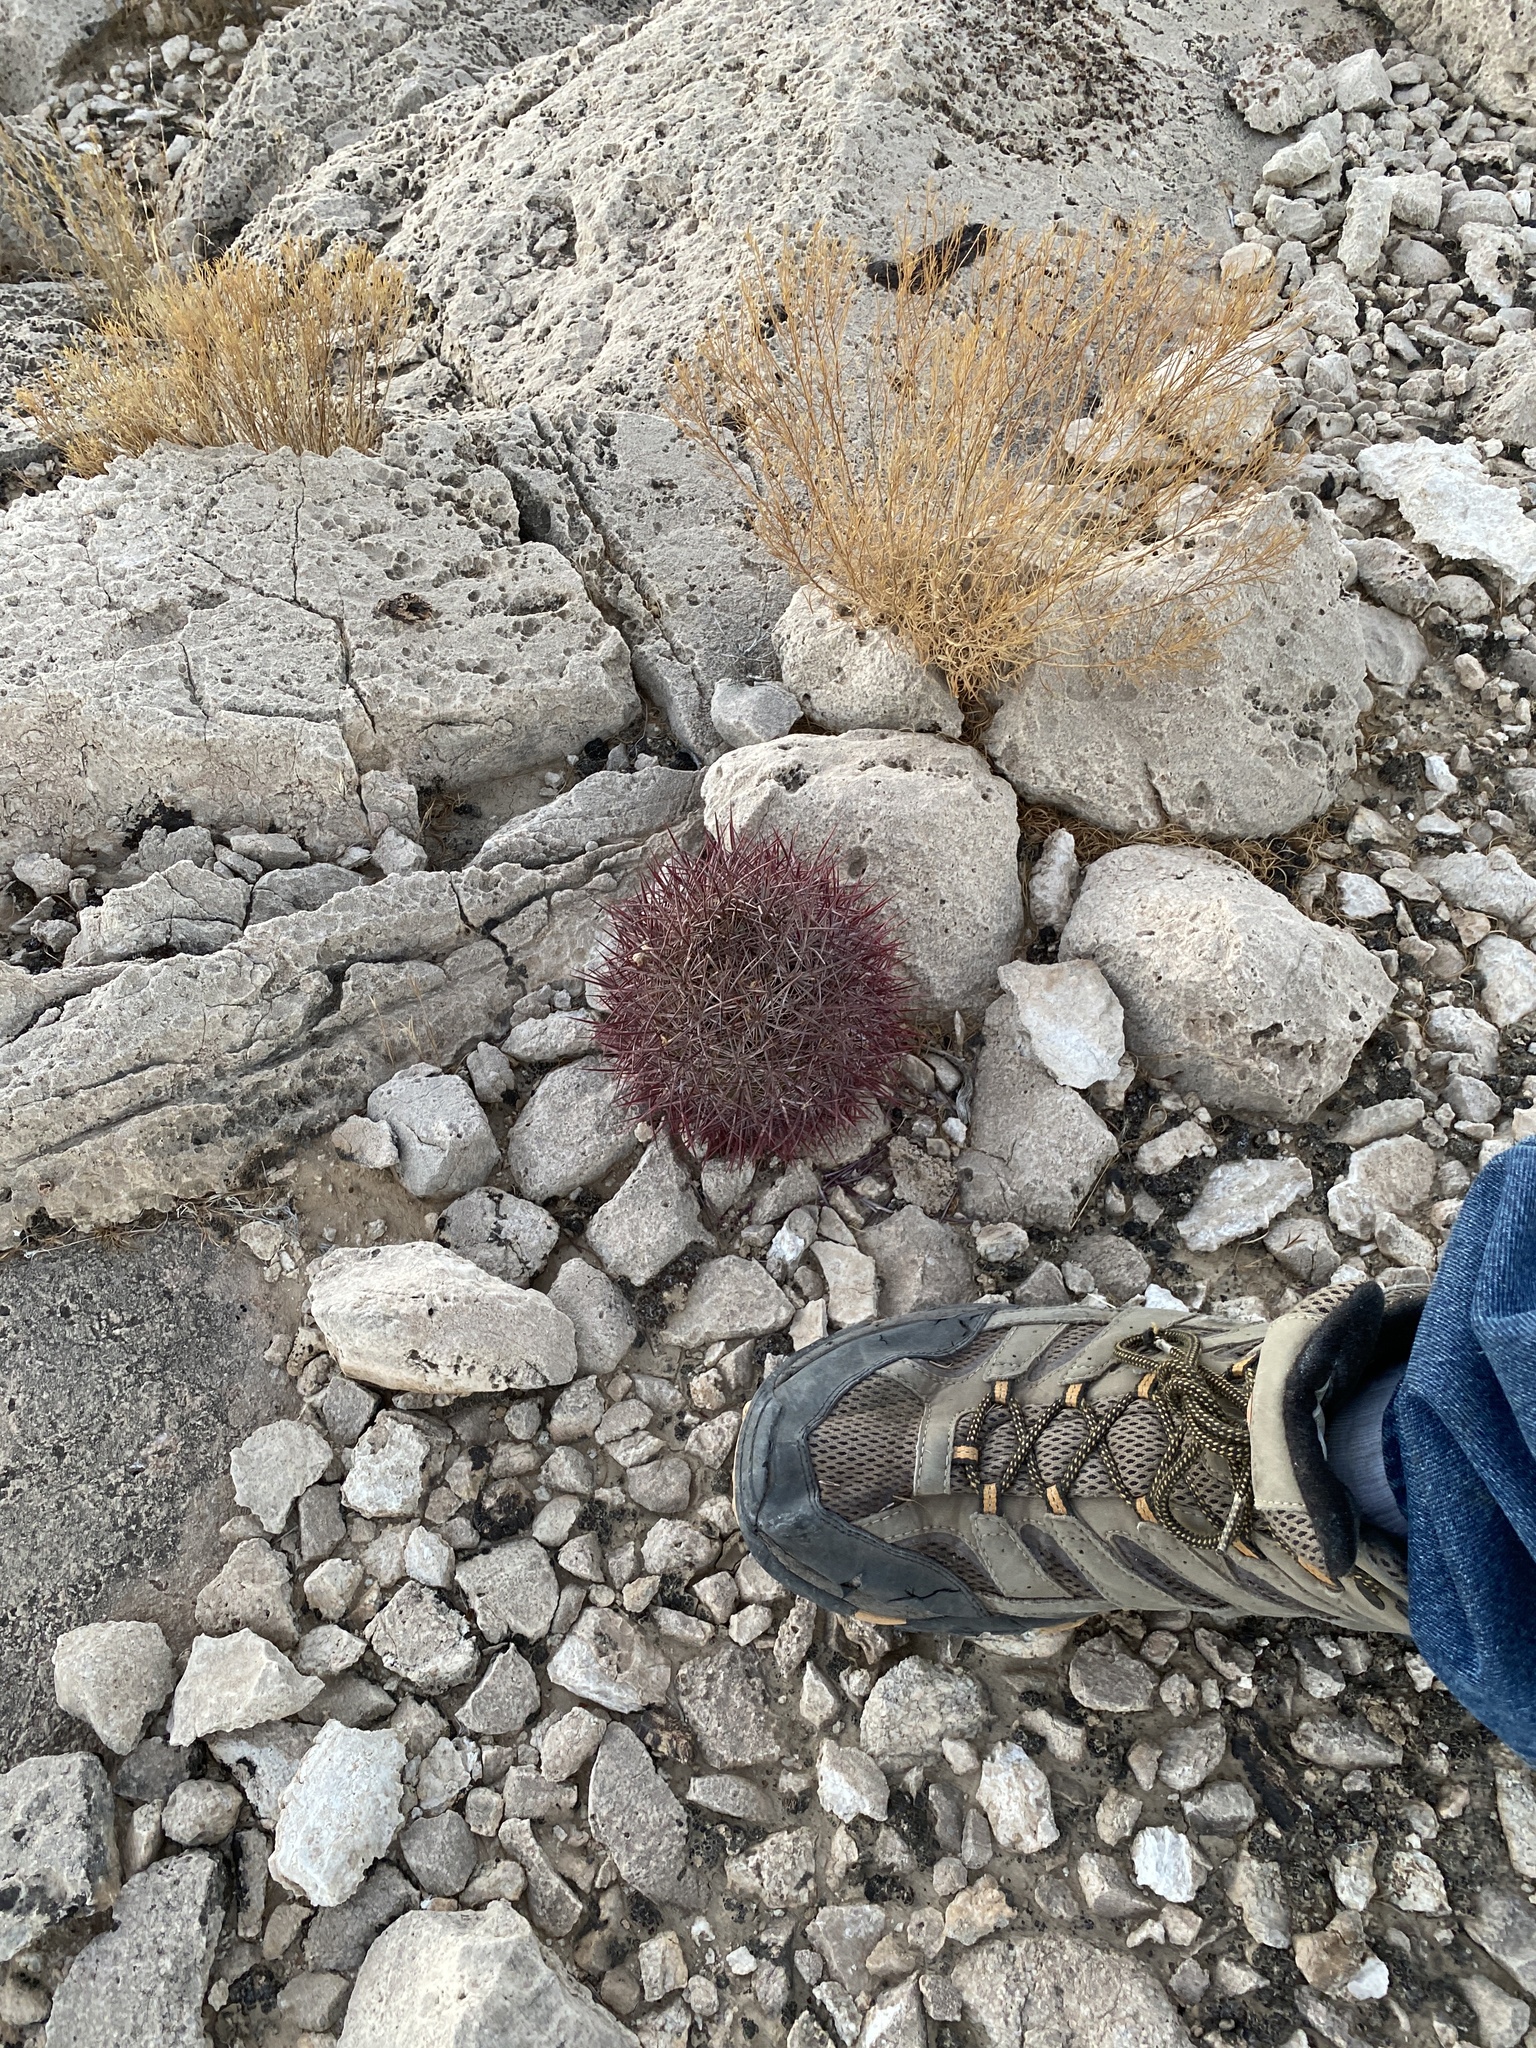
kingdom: Plantae
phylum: Tracheophyta
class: Magnoliopsida
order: Caryophyllales
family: Cactaceae
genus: Sclerocactus
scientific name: Sclerocactus johnsonii
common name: Eight-spine fishhook cactus
